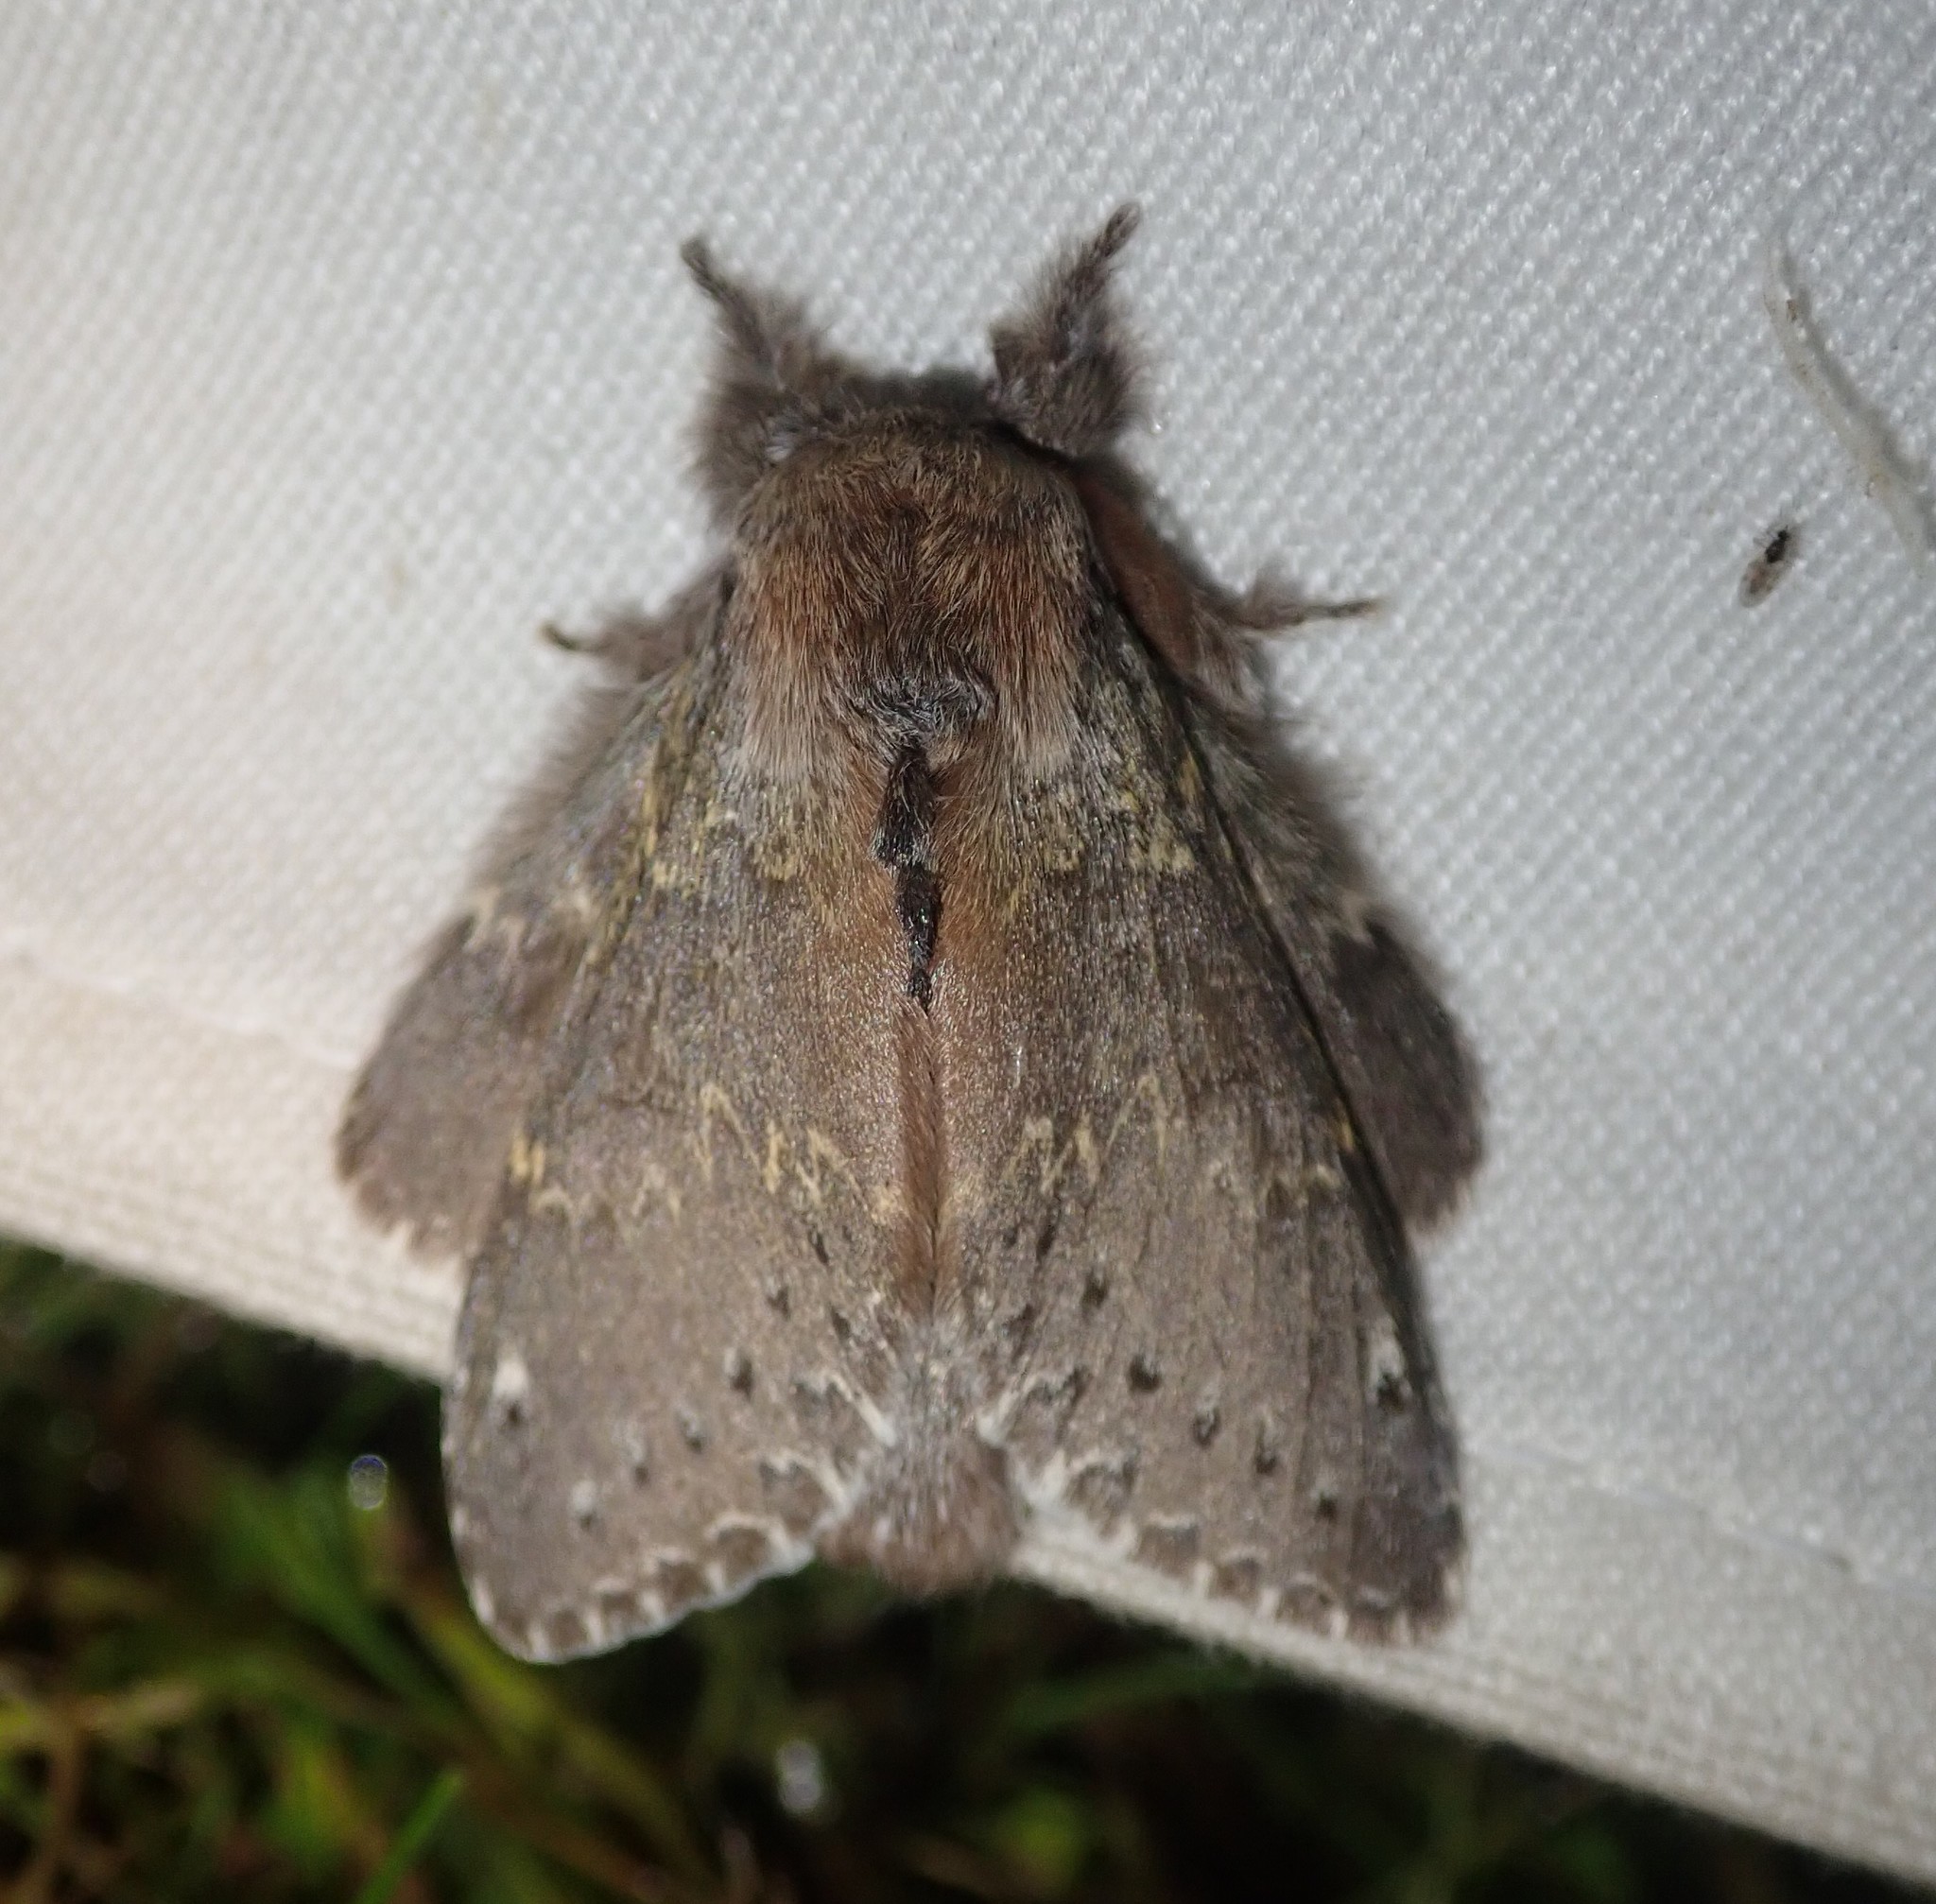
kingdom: Animalia
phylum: Arthropoda
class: Insecta
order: Lepidoptera
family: Notodontidae
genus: Stauropus
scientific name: Stauropus fagi
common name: Lobster moth
